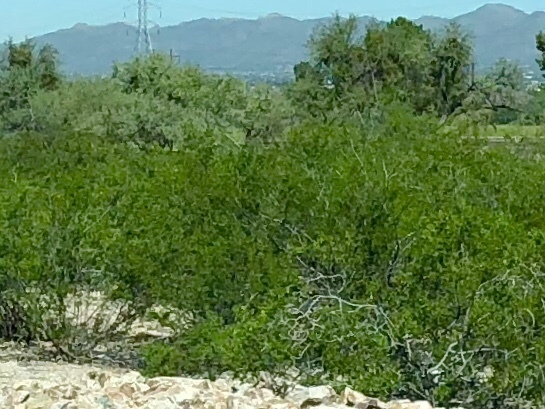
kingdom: Plantae
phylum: Tracheophyta
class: Magnoliopsida
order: Zygophyllales
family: Zygophyllaceae
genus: Larrea
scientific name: Larrea tridentata
